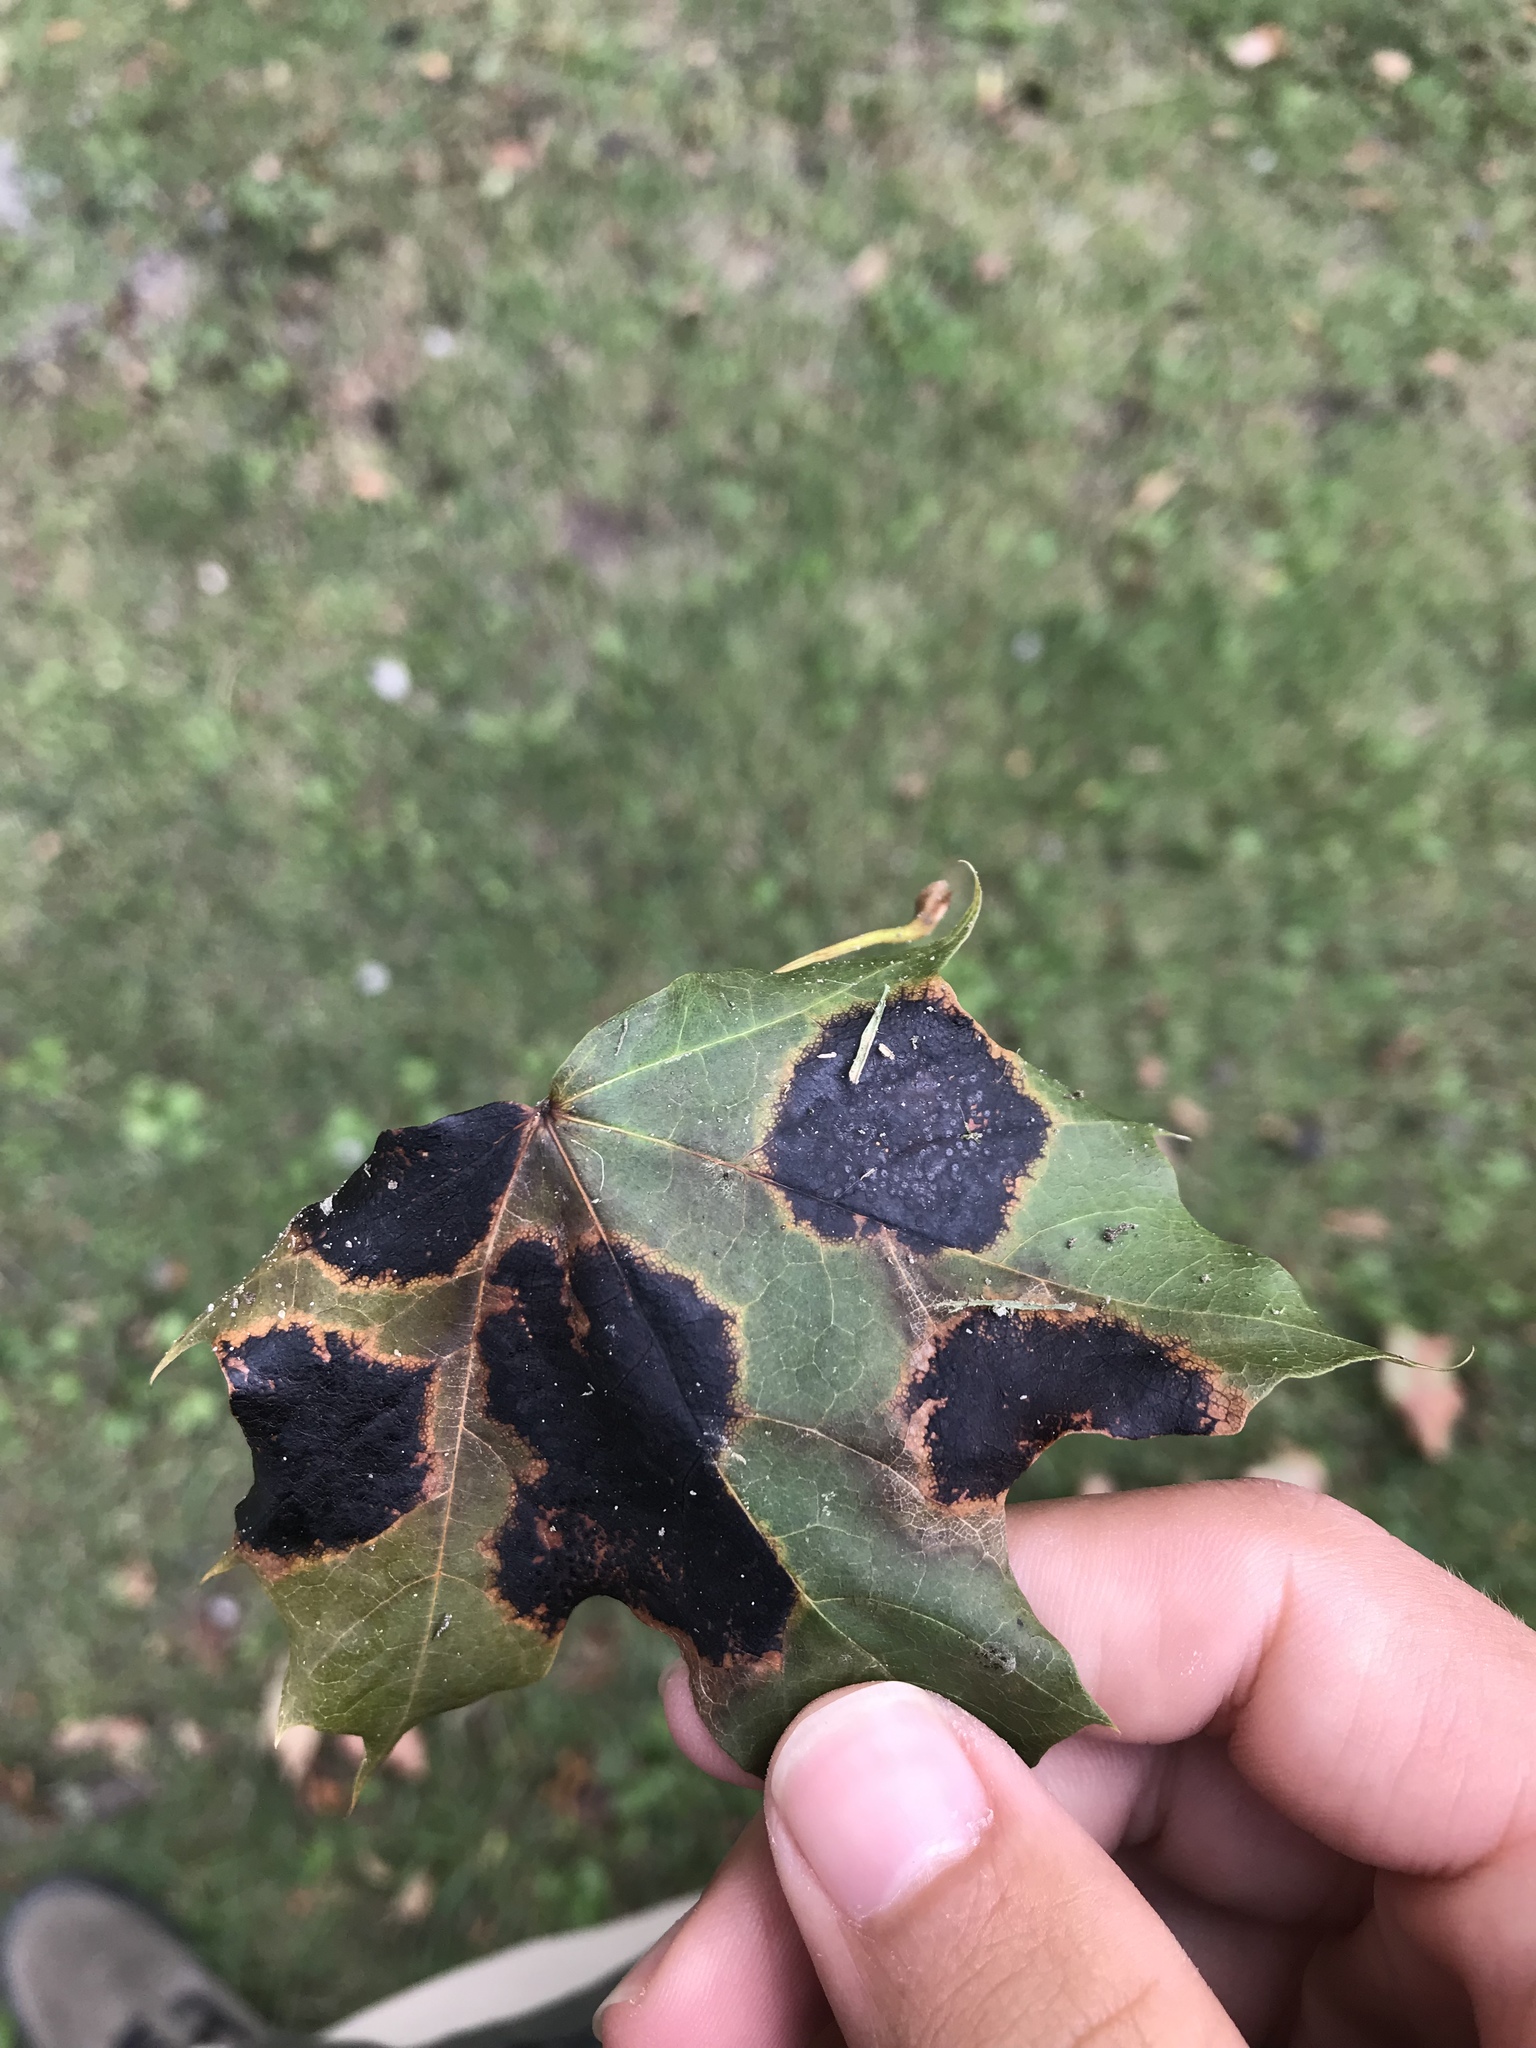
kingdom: Fungi
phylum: Ascomycota
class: Leotiomycetes
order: Rhytismatales
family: Rhytismataceae
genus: Rhytisma
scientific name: Rhytisma acerinum
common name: European tar spot
